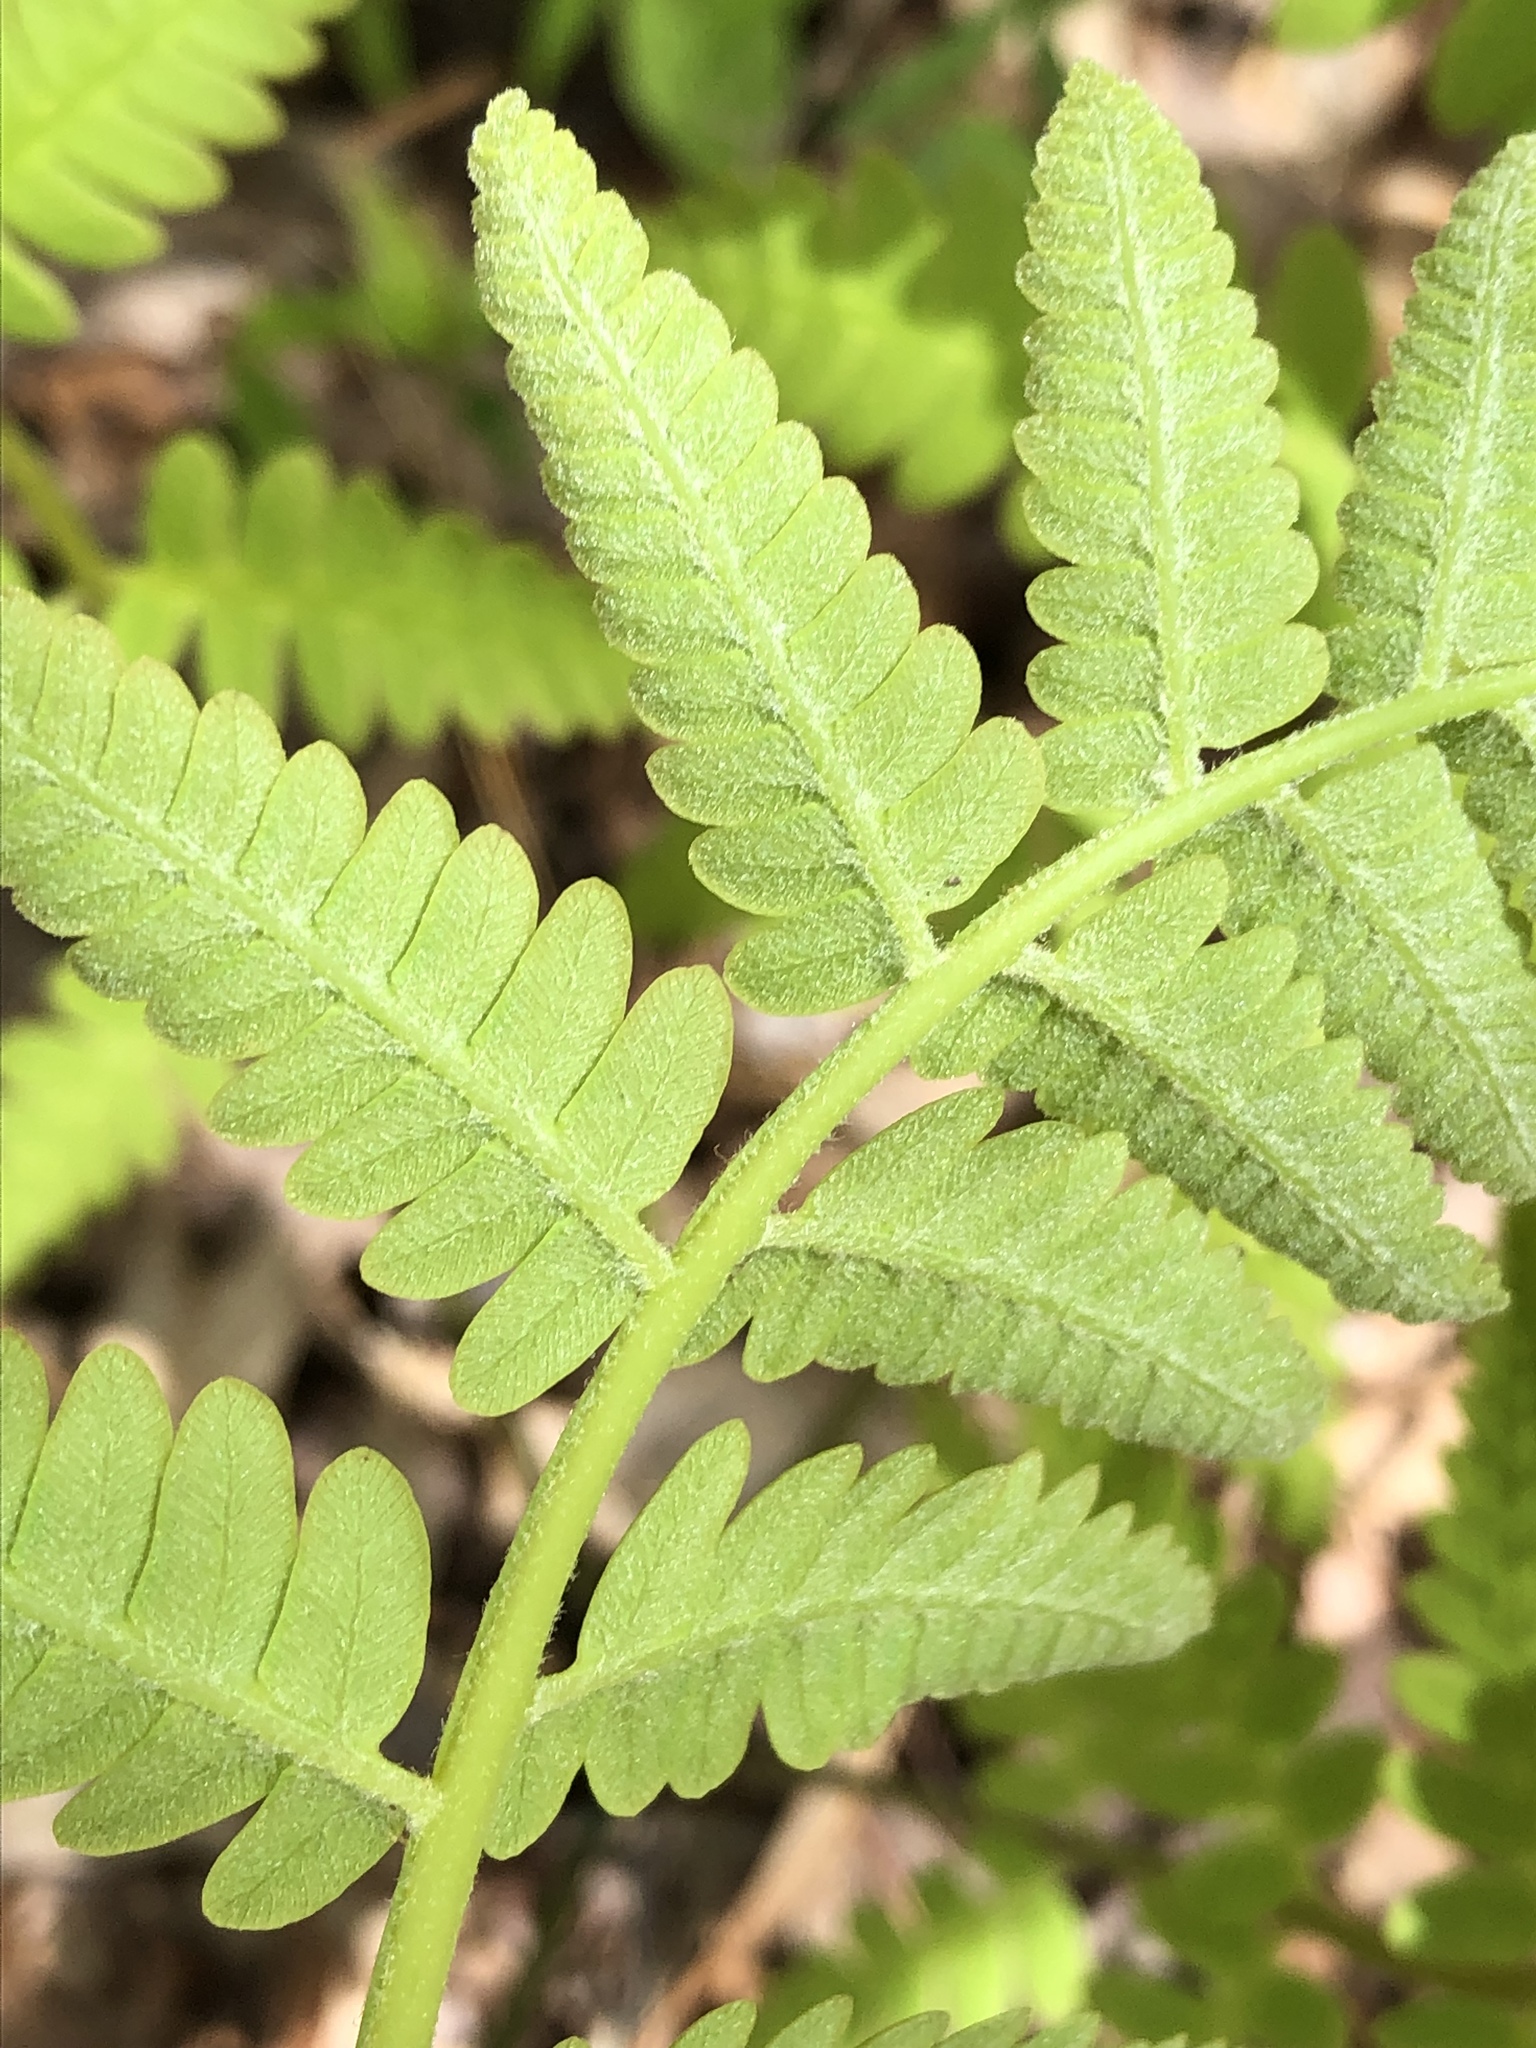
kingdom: Plantae
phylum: Tracheophyta
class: Polypodiopsida
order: Osmundales
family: Osmundaceae
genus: Claytosmunda
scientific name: Claytosmunda claytoniana
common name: Clayton's fern
